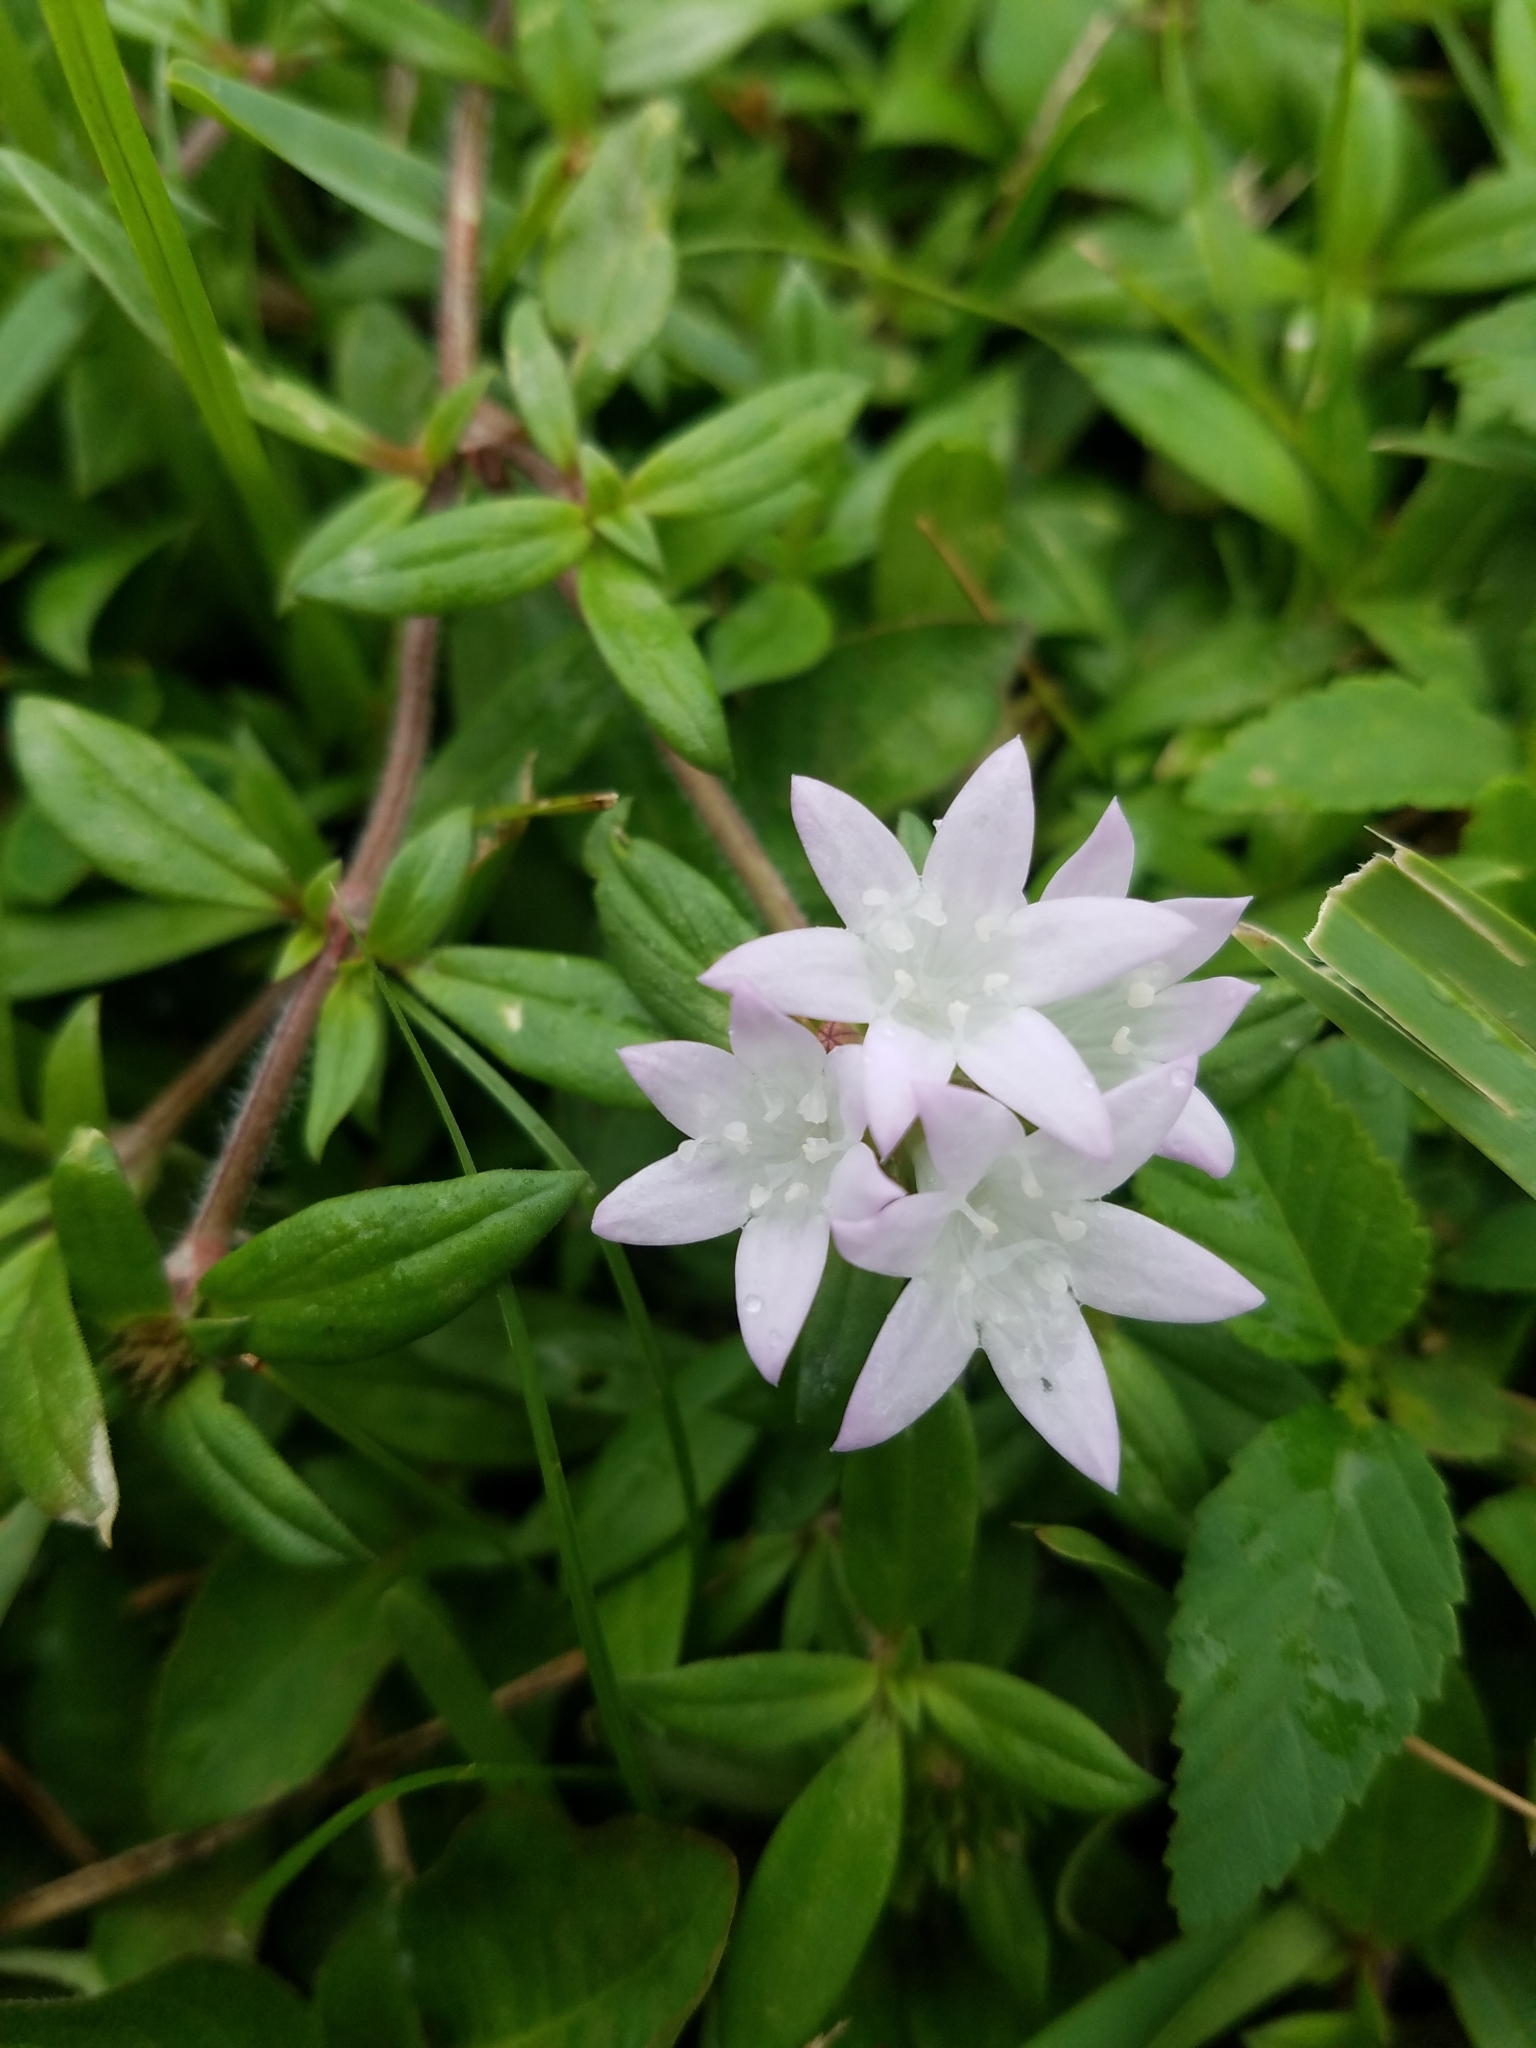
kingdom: Plantae
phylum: Tracheophyta
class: Magnoliopsida
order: Gentianales
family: Rubiaceae
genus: Richardia
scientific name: Richardia grandiflora
